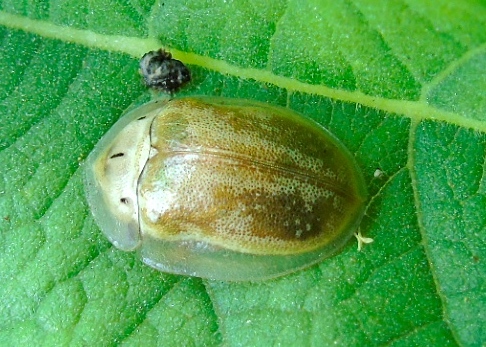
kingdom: Animalia
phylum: Arthropoda
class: Insecta
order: Coleoptera
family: Chrysomelidae
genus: Physonota
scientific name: Physonota arizonae
